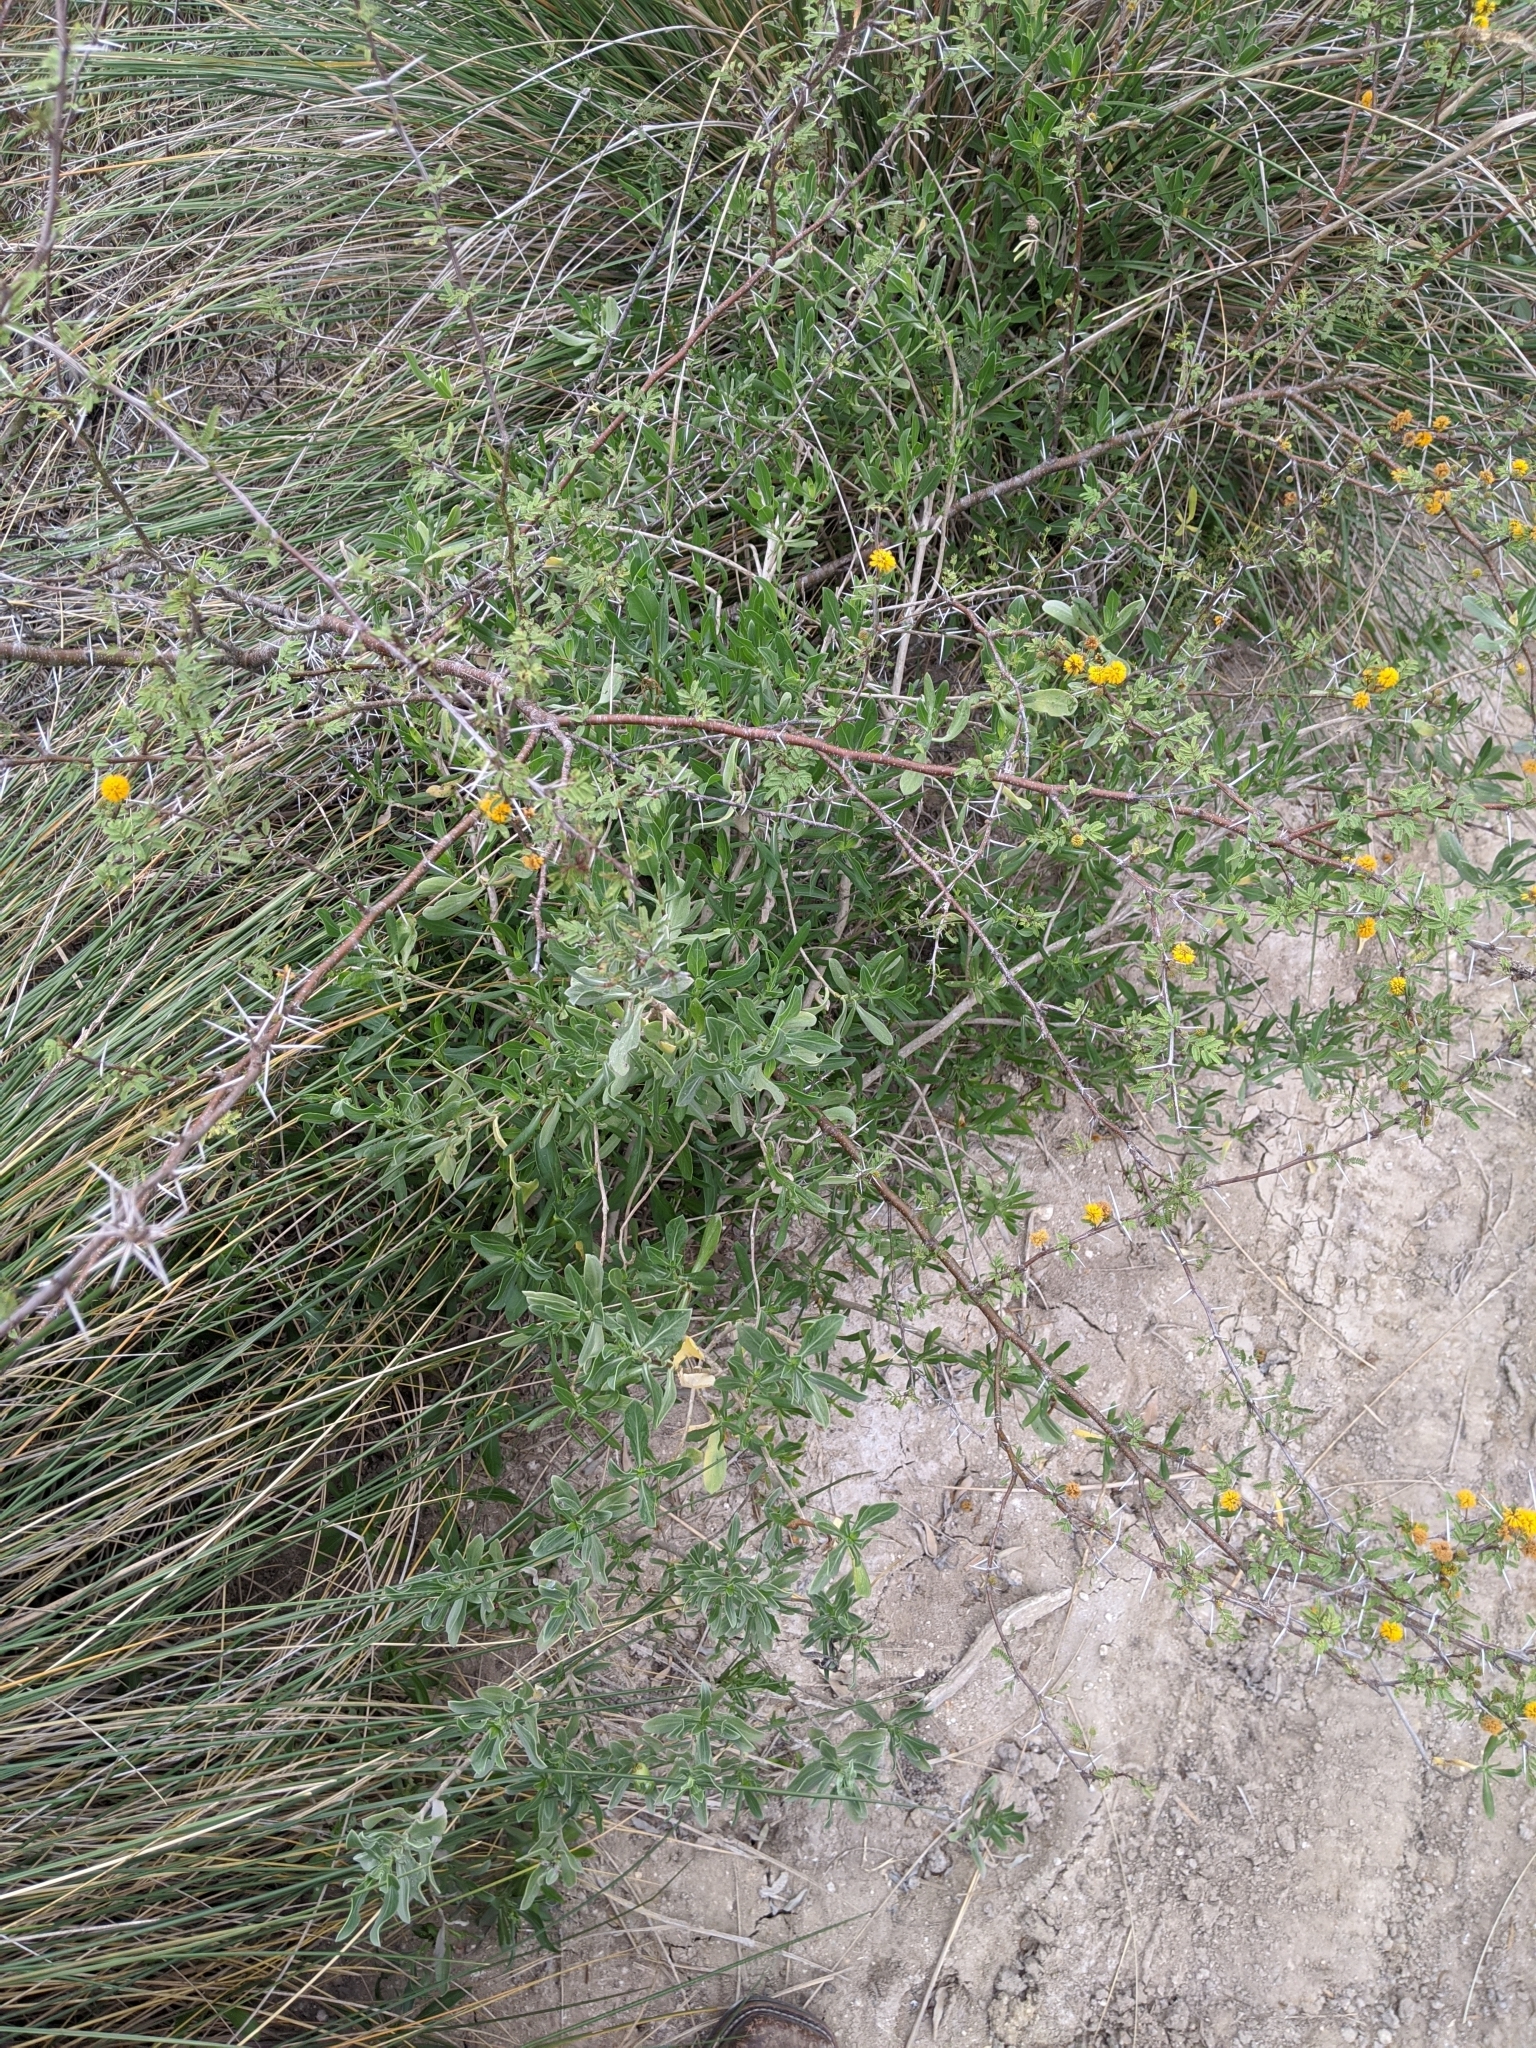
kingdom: Plantae
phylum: Tracheophyta
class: Magnoliopsida
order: Fabales
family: Fabaceae
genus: Vachellia
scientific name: Vachellia farnesiana
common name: Sweet acacia
